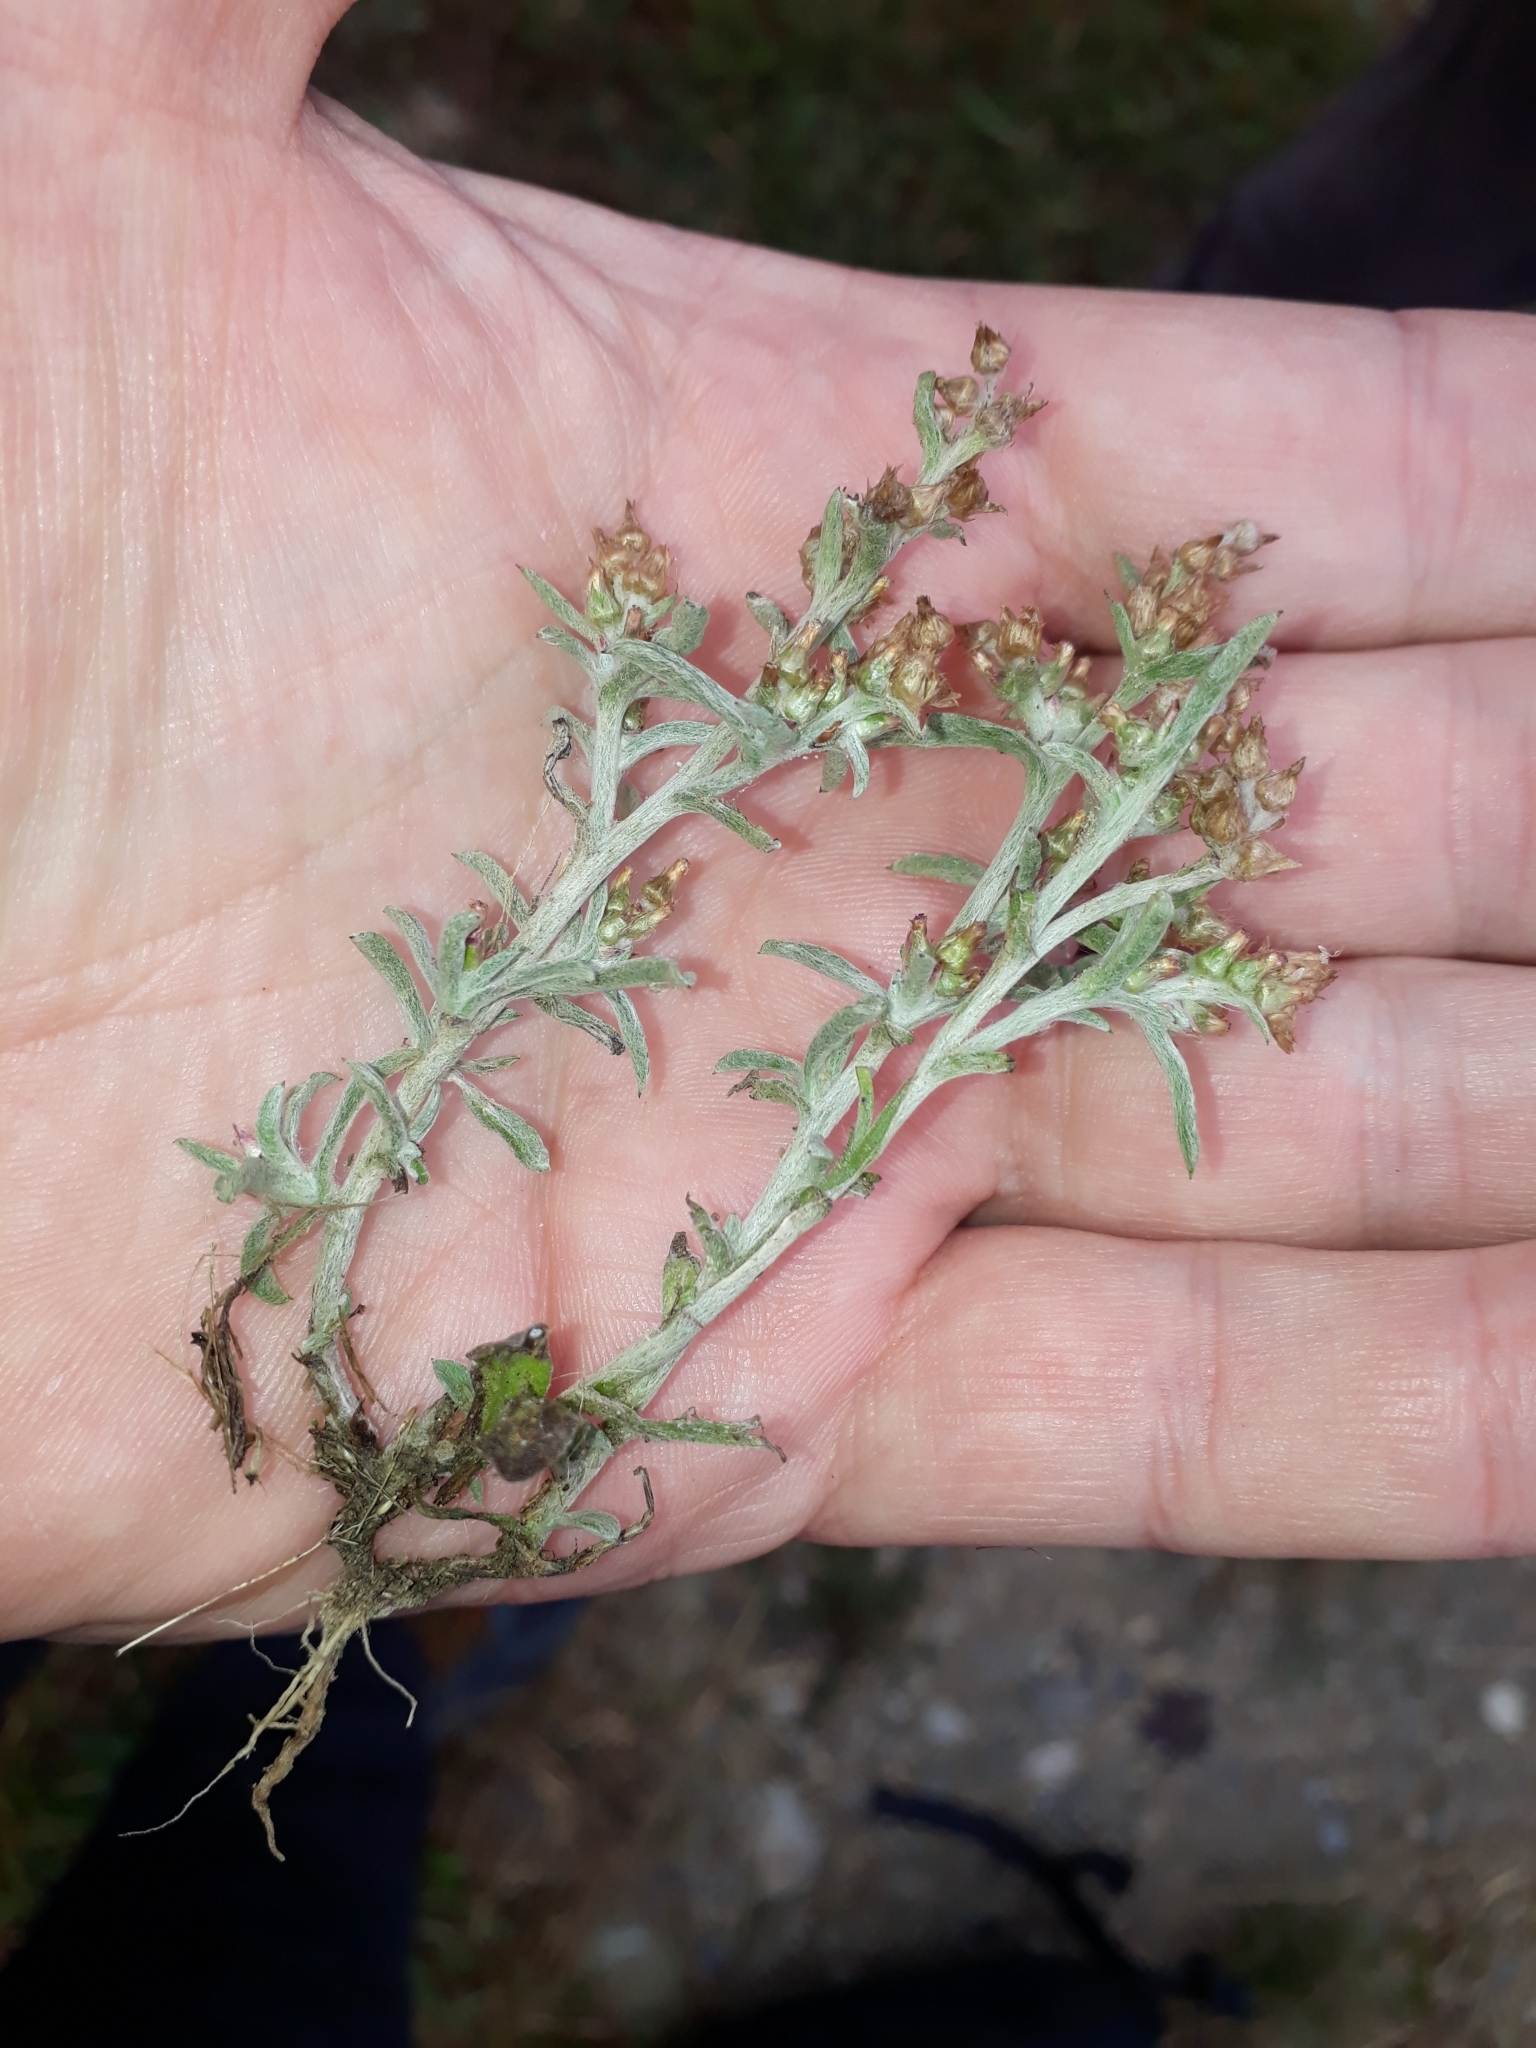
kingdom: Plantae
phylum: Tracheophyta
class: Magnoliopsida
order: Asterales
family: Asteraceae
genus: Gamochaeta
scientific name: Gamochaeta calviceps
